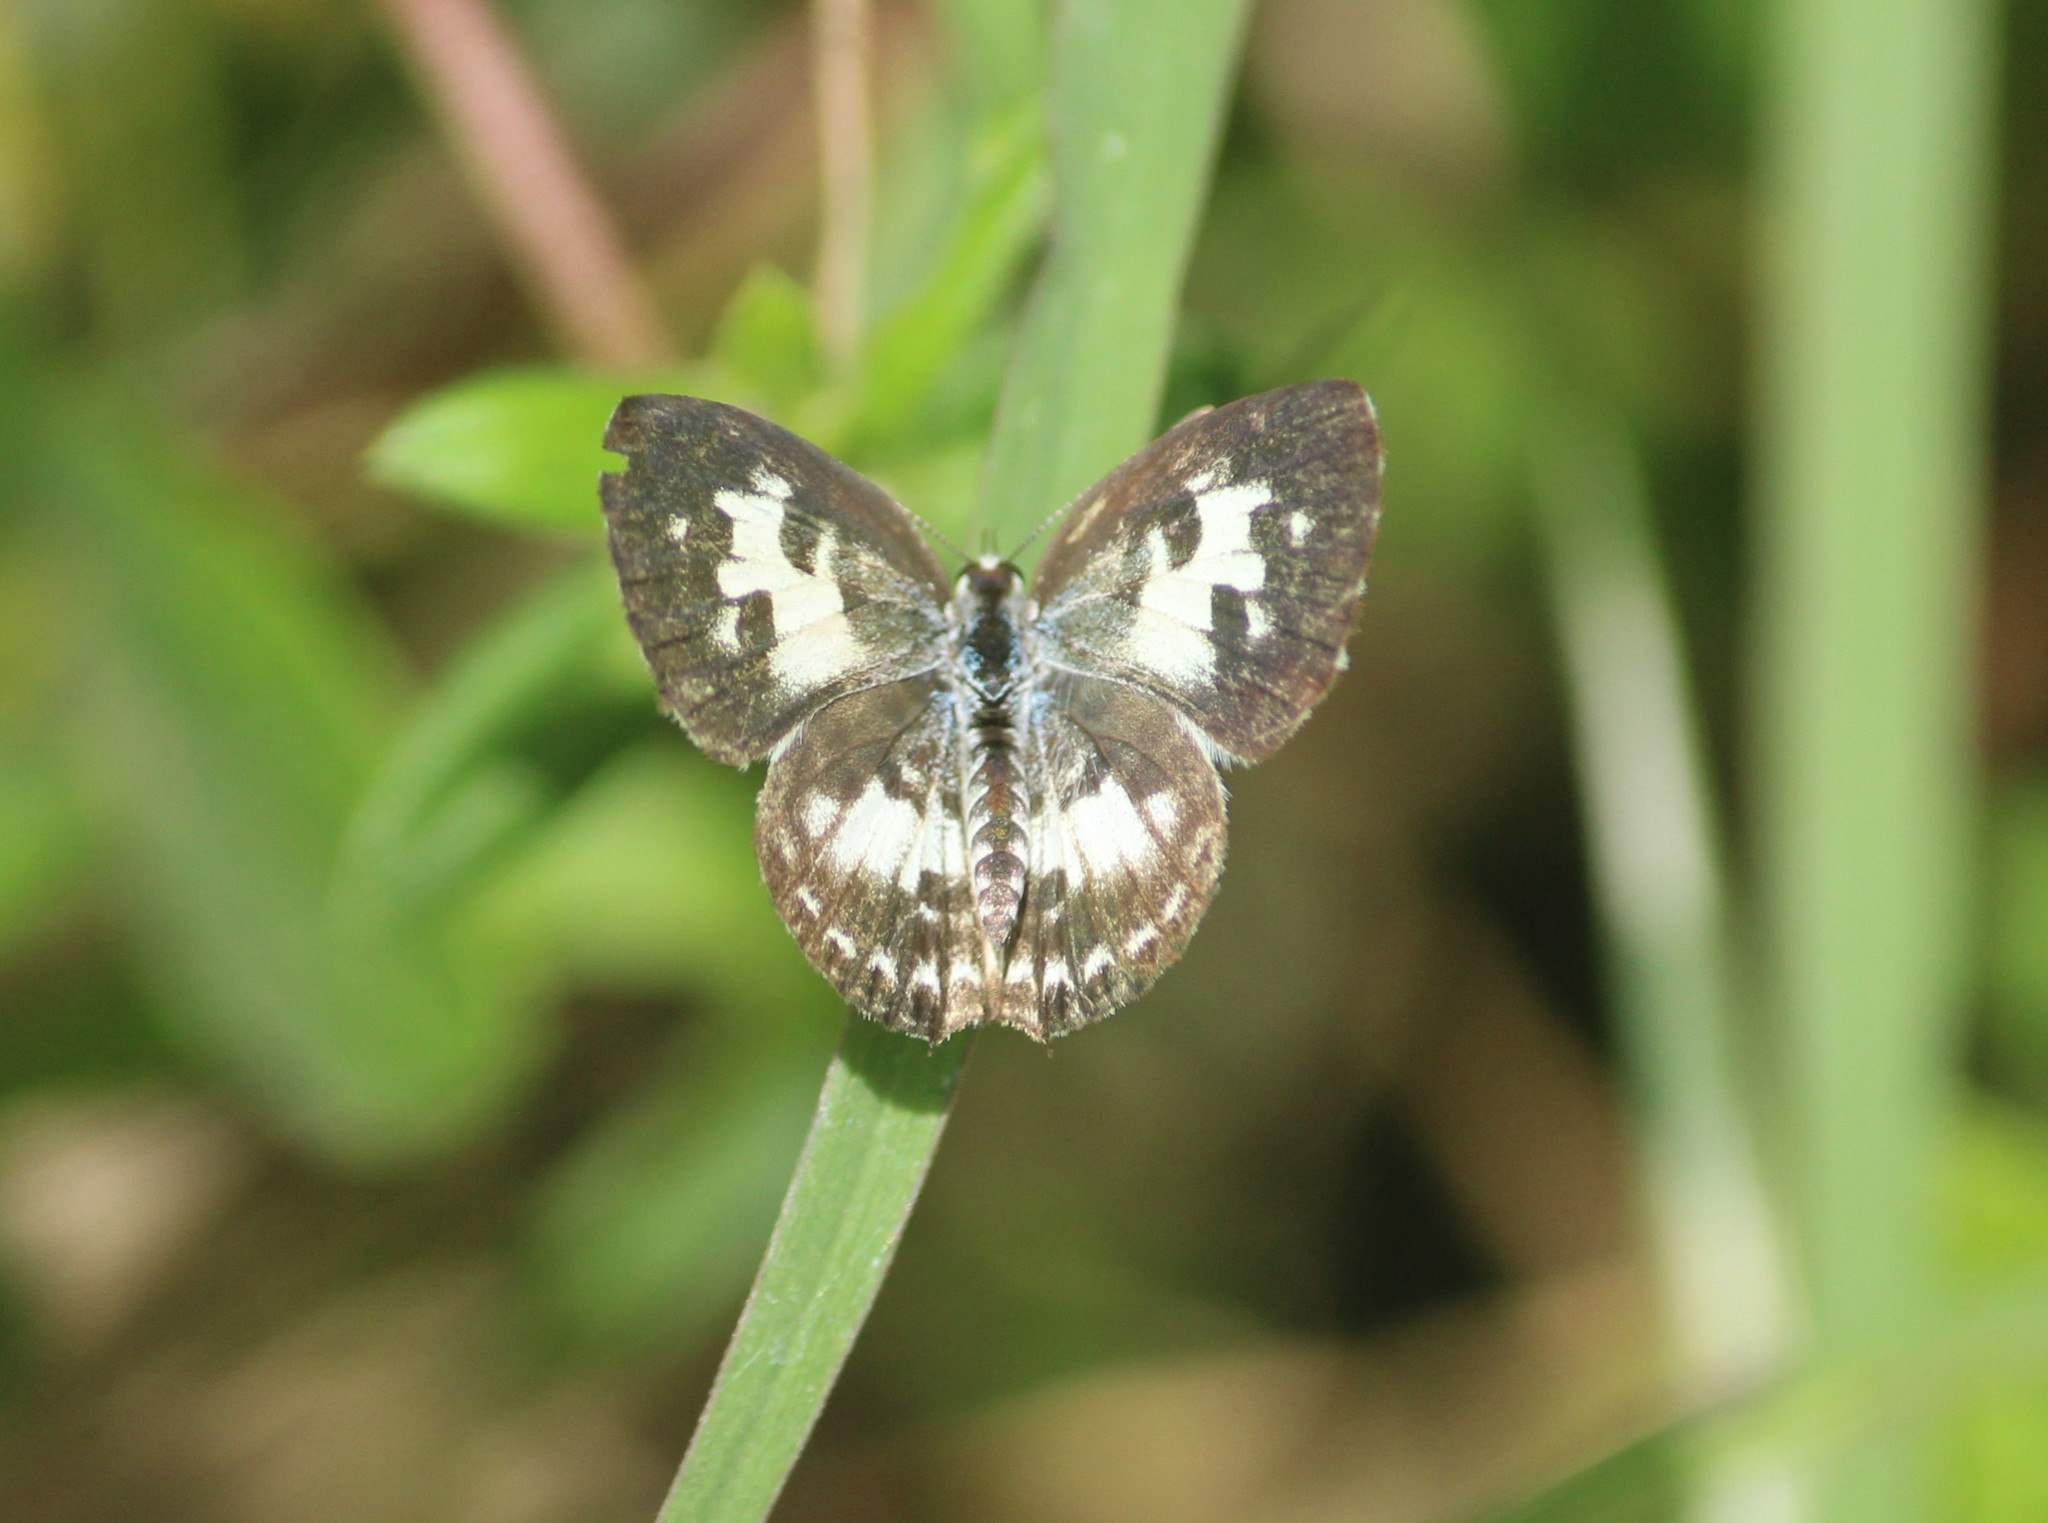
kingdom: Animalia
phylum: Arthropoda
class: Insecta
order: Lepidoptera
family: Lycaenidae
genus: Castalius
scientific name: Castalius rosimon
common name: Common pierrot
